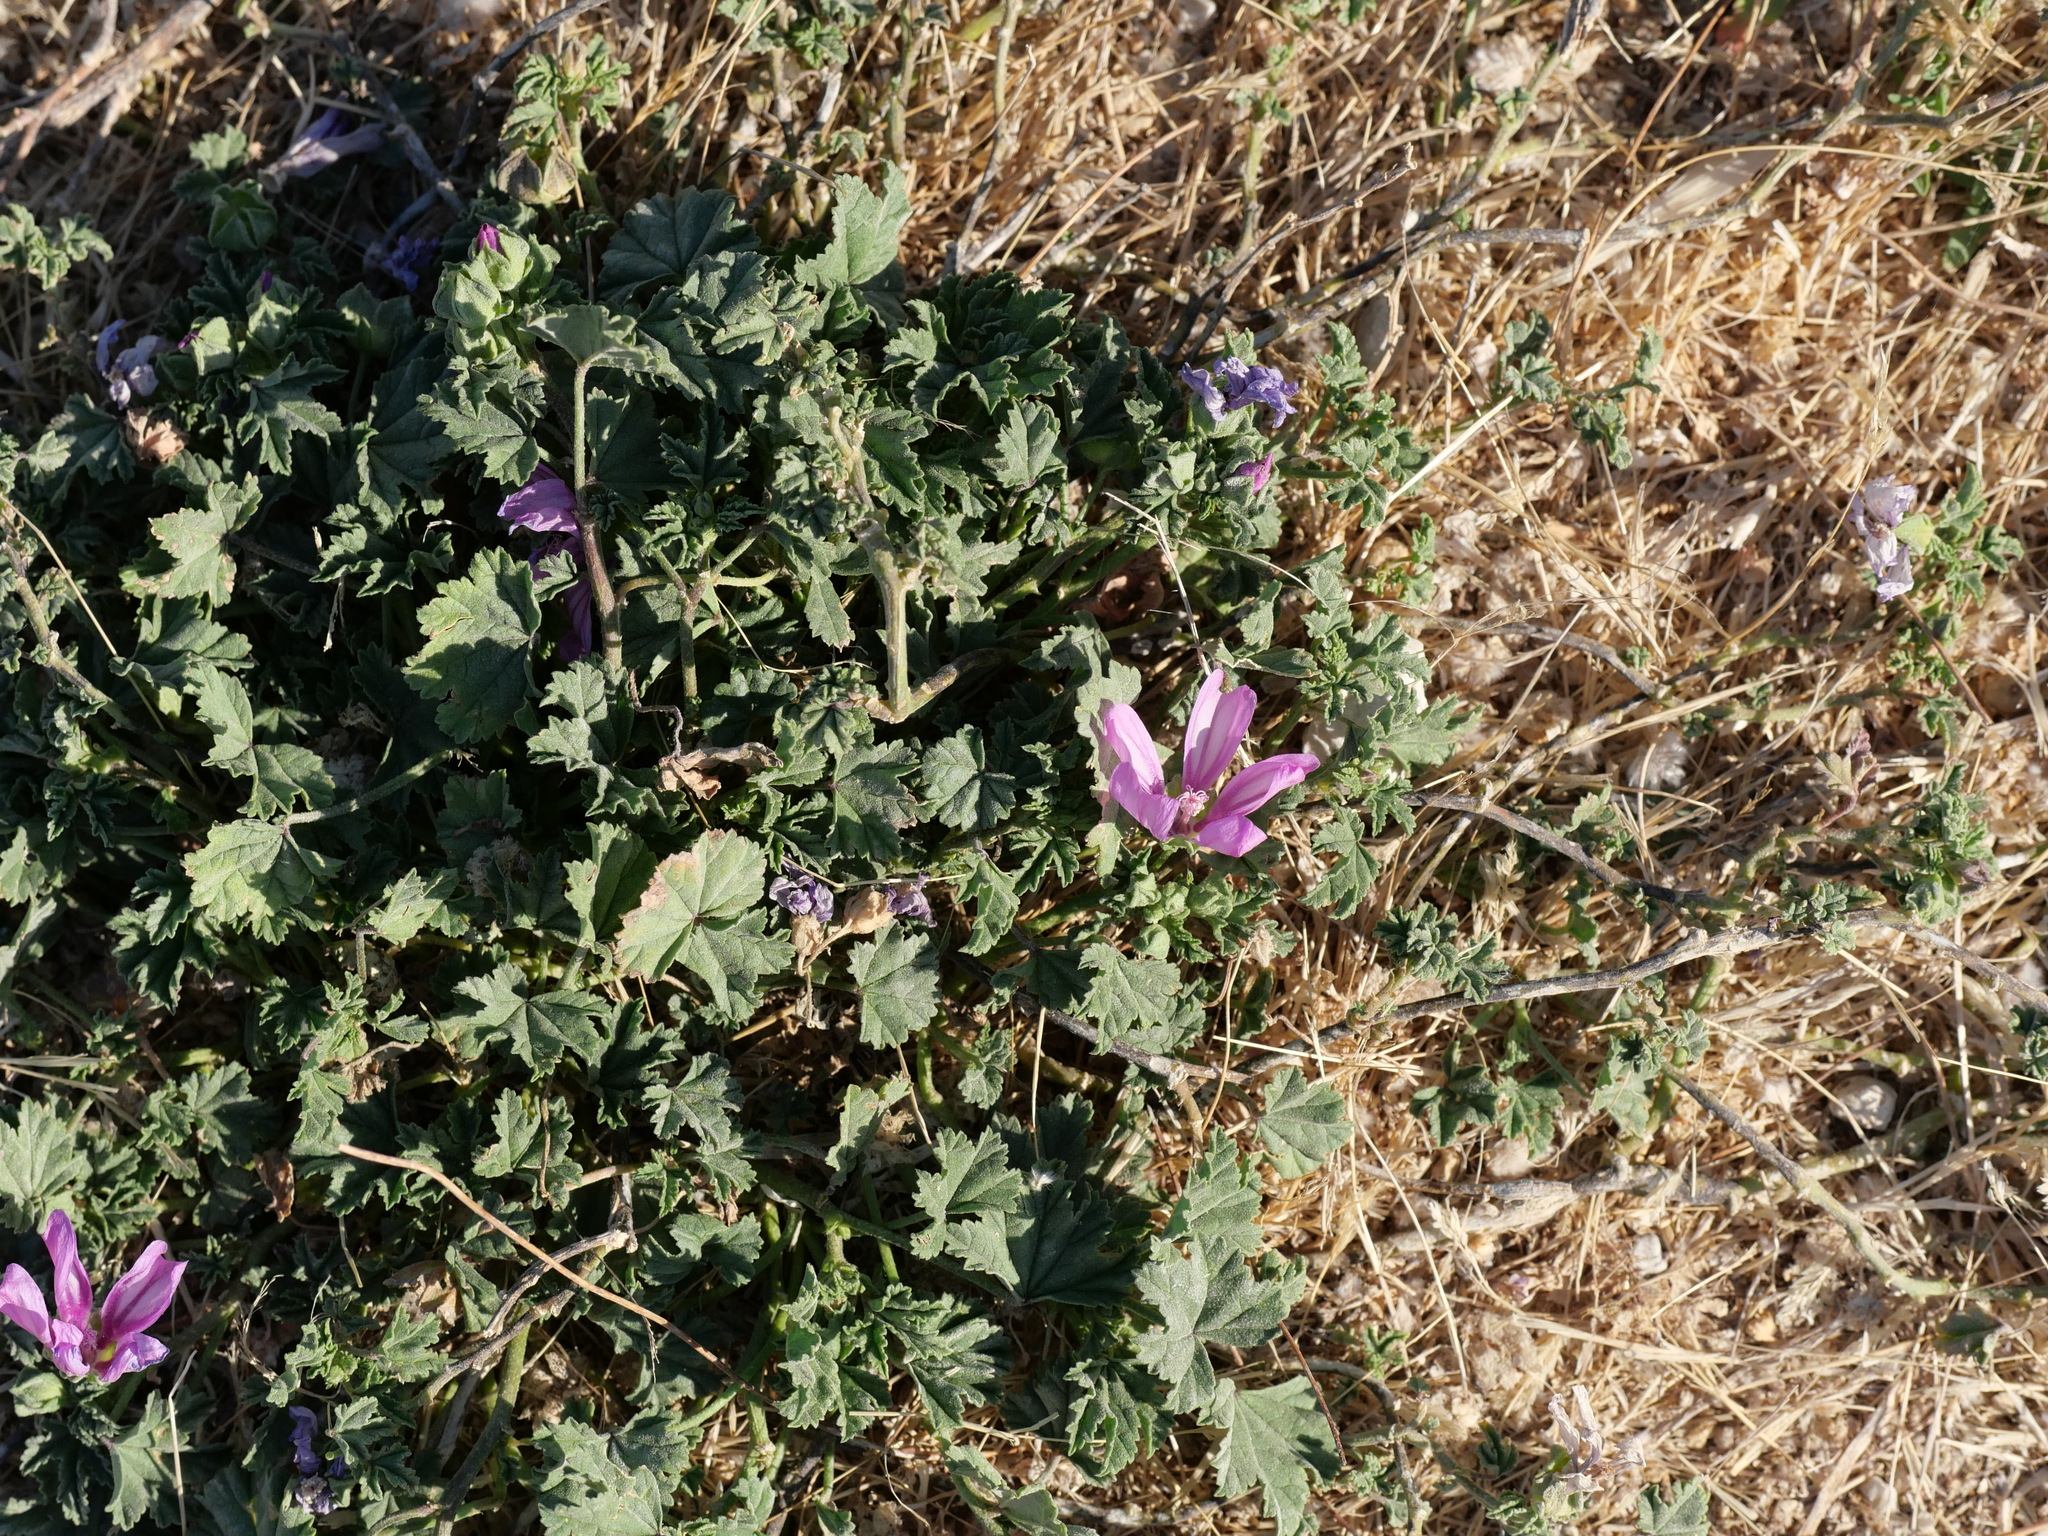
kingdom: Plantae
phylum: Tracheophyta
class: Magnoliopsida
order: Malvales
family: Malvaceae
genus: Malva
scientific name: Malva sylvestris
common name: Common mallow
